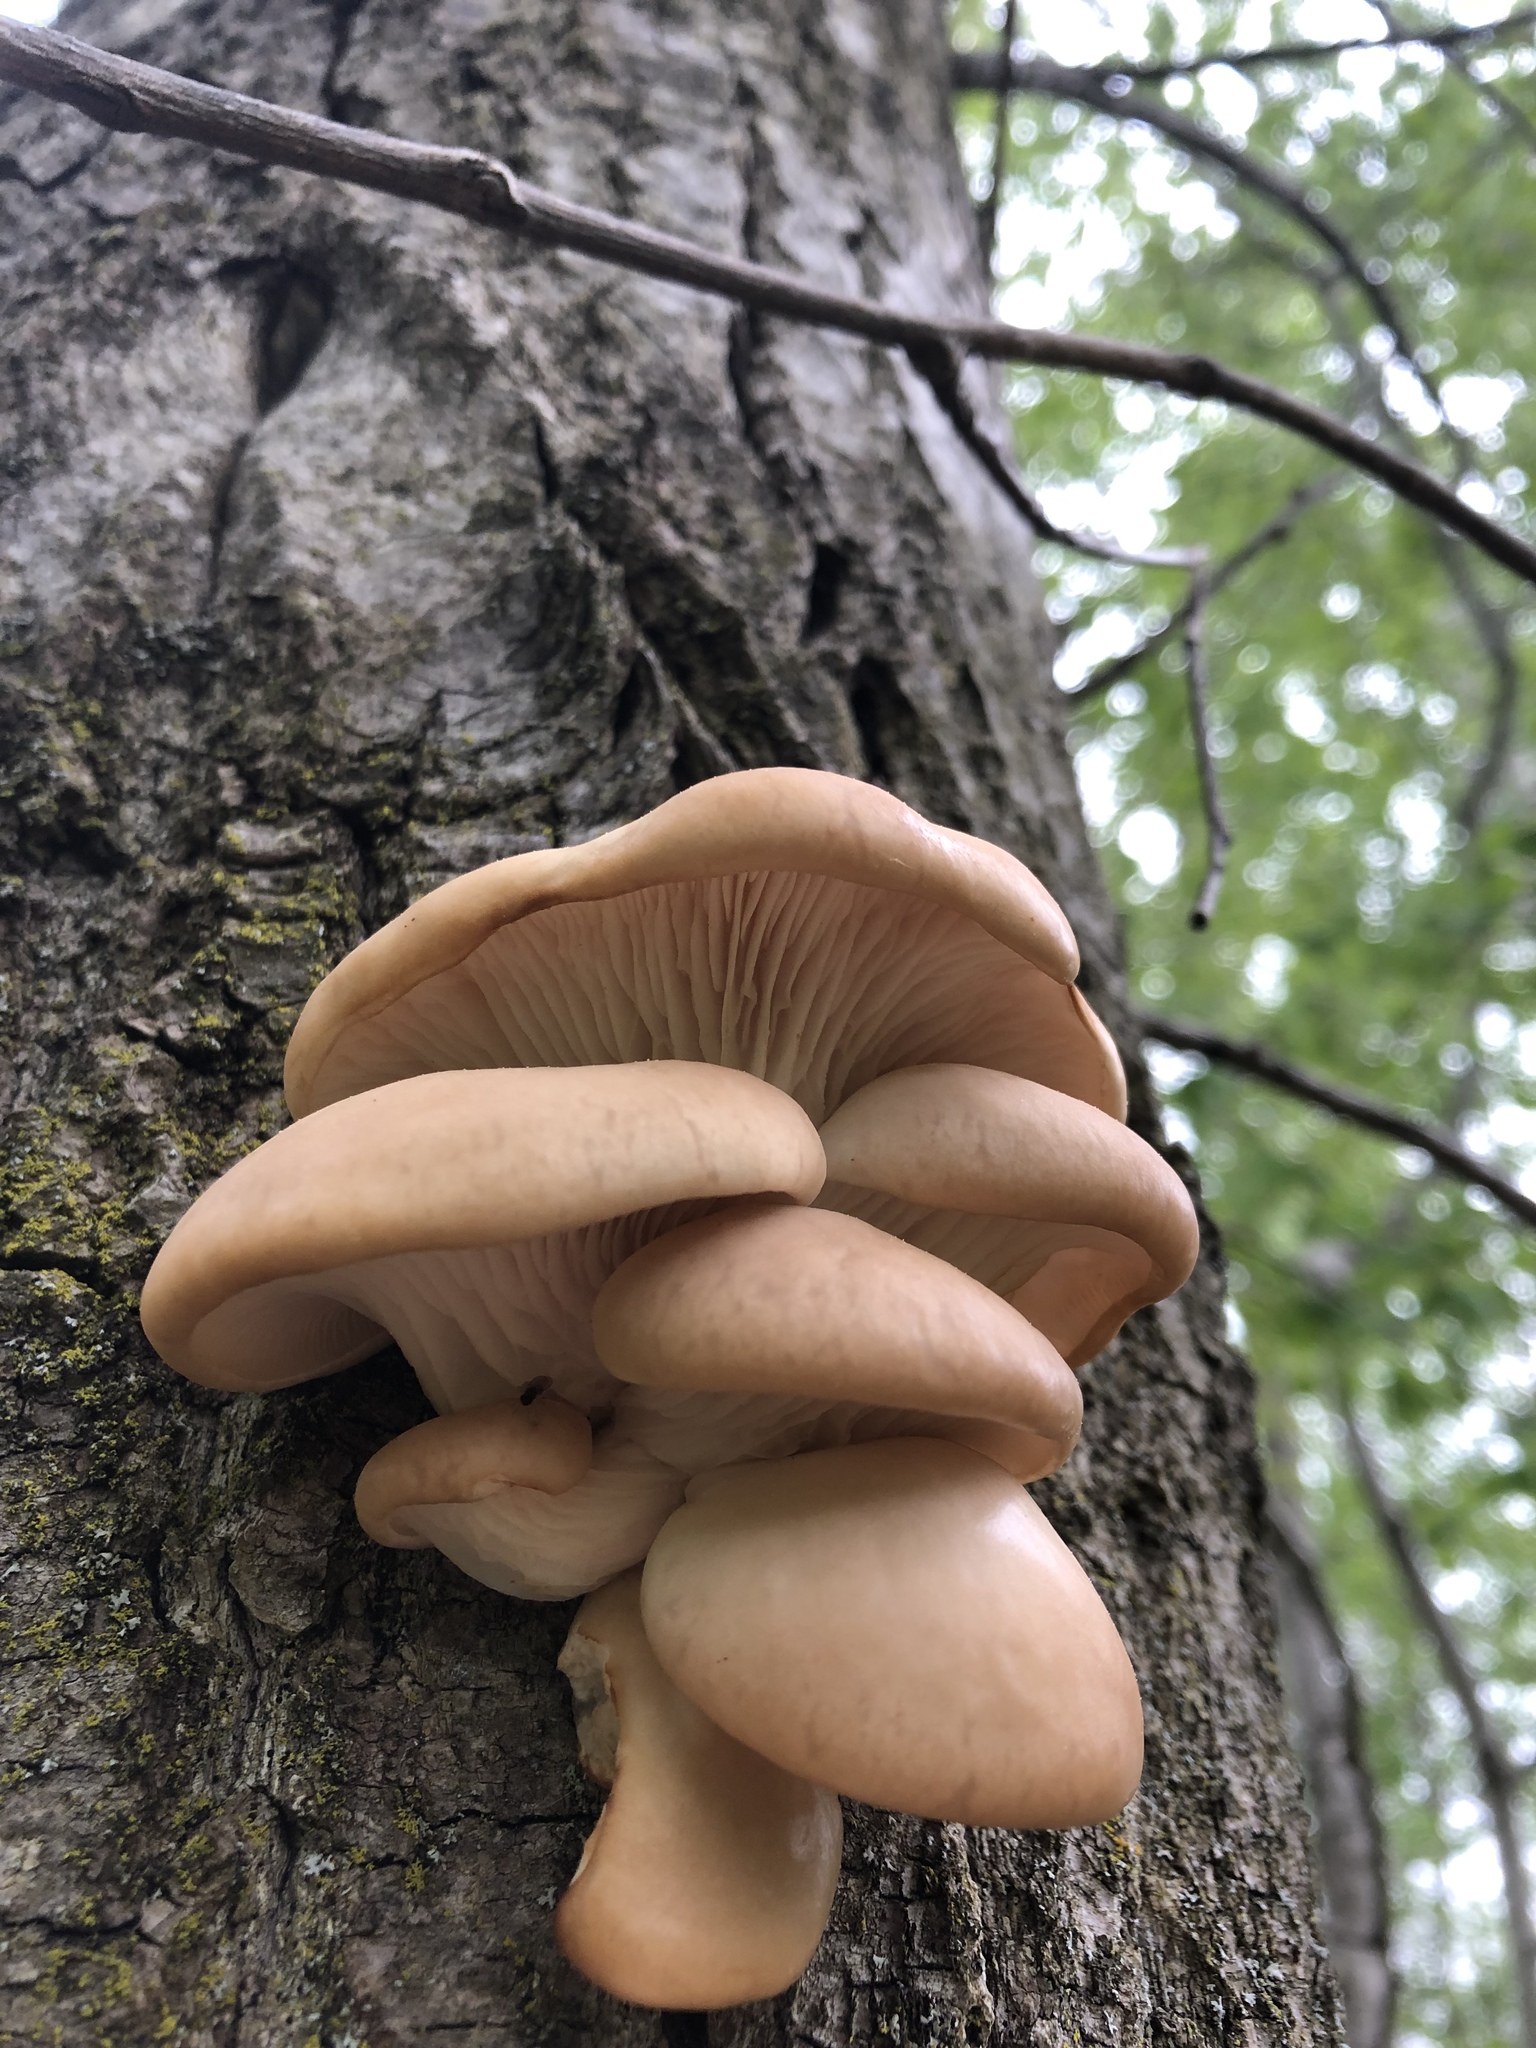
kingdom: Fungi
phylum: Basidiomycota
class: Agaricomycetes
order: Agaricales
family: Pleurotaceae
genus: Pleurotus
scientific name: Pleurotus populinus
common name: Aspen oyster mushroom
